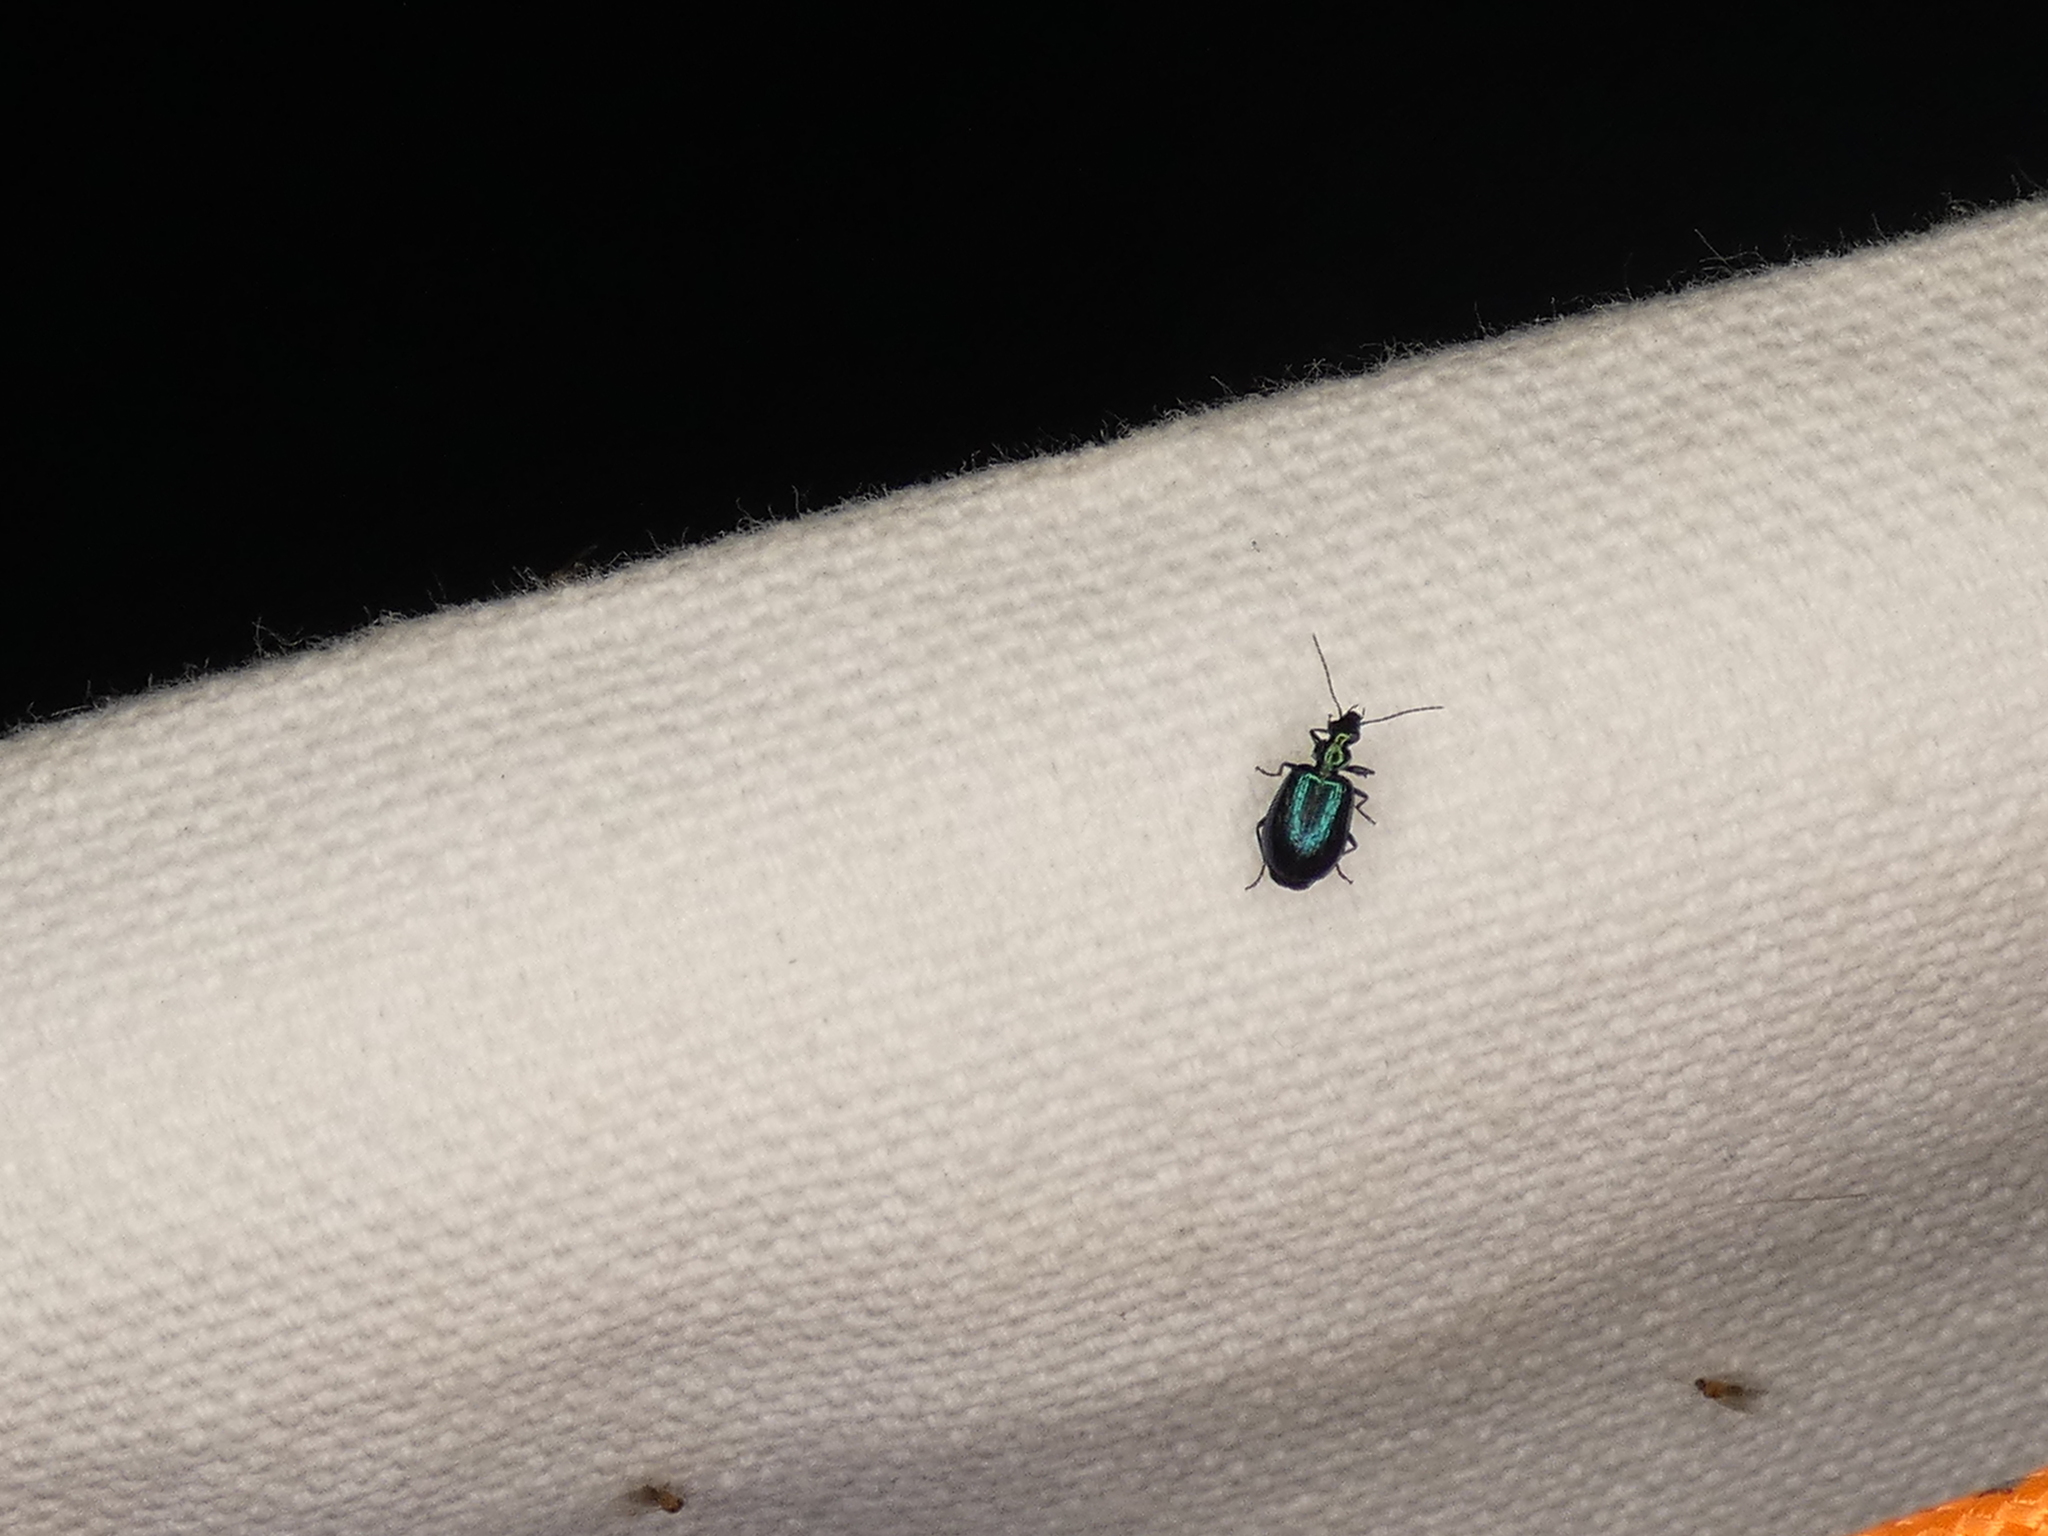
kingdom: Animalia
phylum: Arthropoda
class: Insecta
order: Coleoptera
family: Carabidae
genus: Lebia
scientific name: Lebia viridis
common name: Flower lebia beetle
